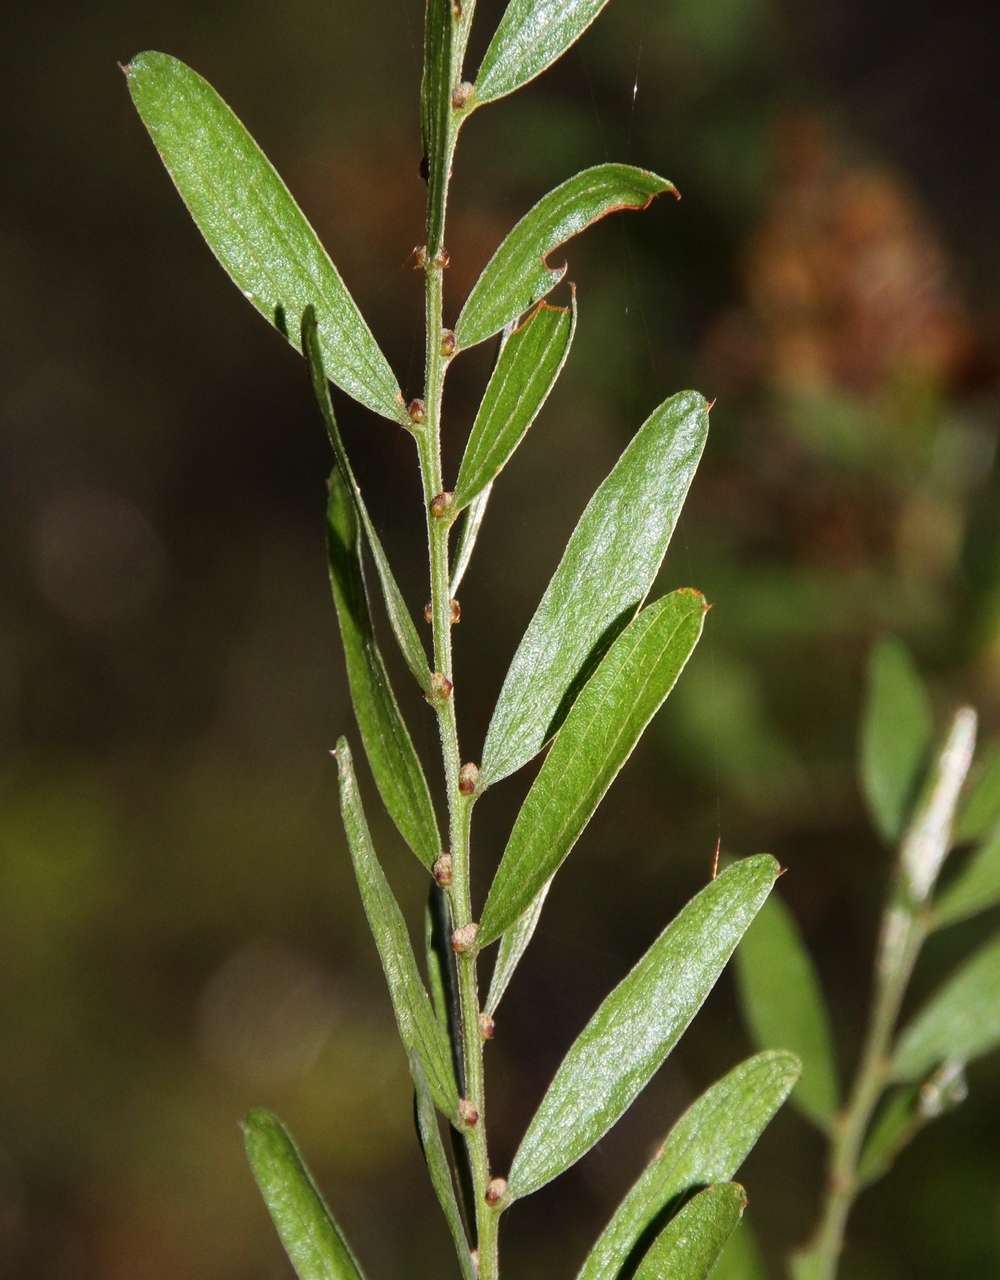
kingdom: Plantae
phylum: Tracheophyta
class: Magnoliopsida
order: Fabales
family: Fabaceae
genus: Acacia
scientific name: Acacia rostriformis
